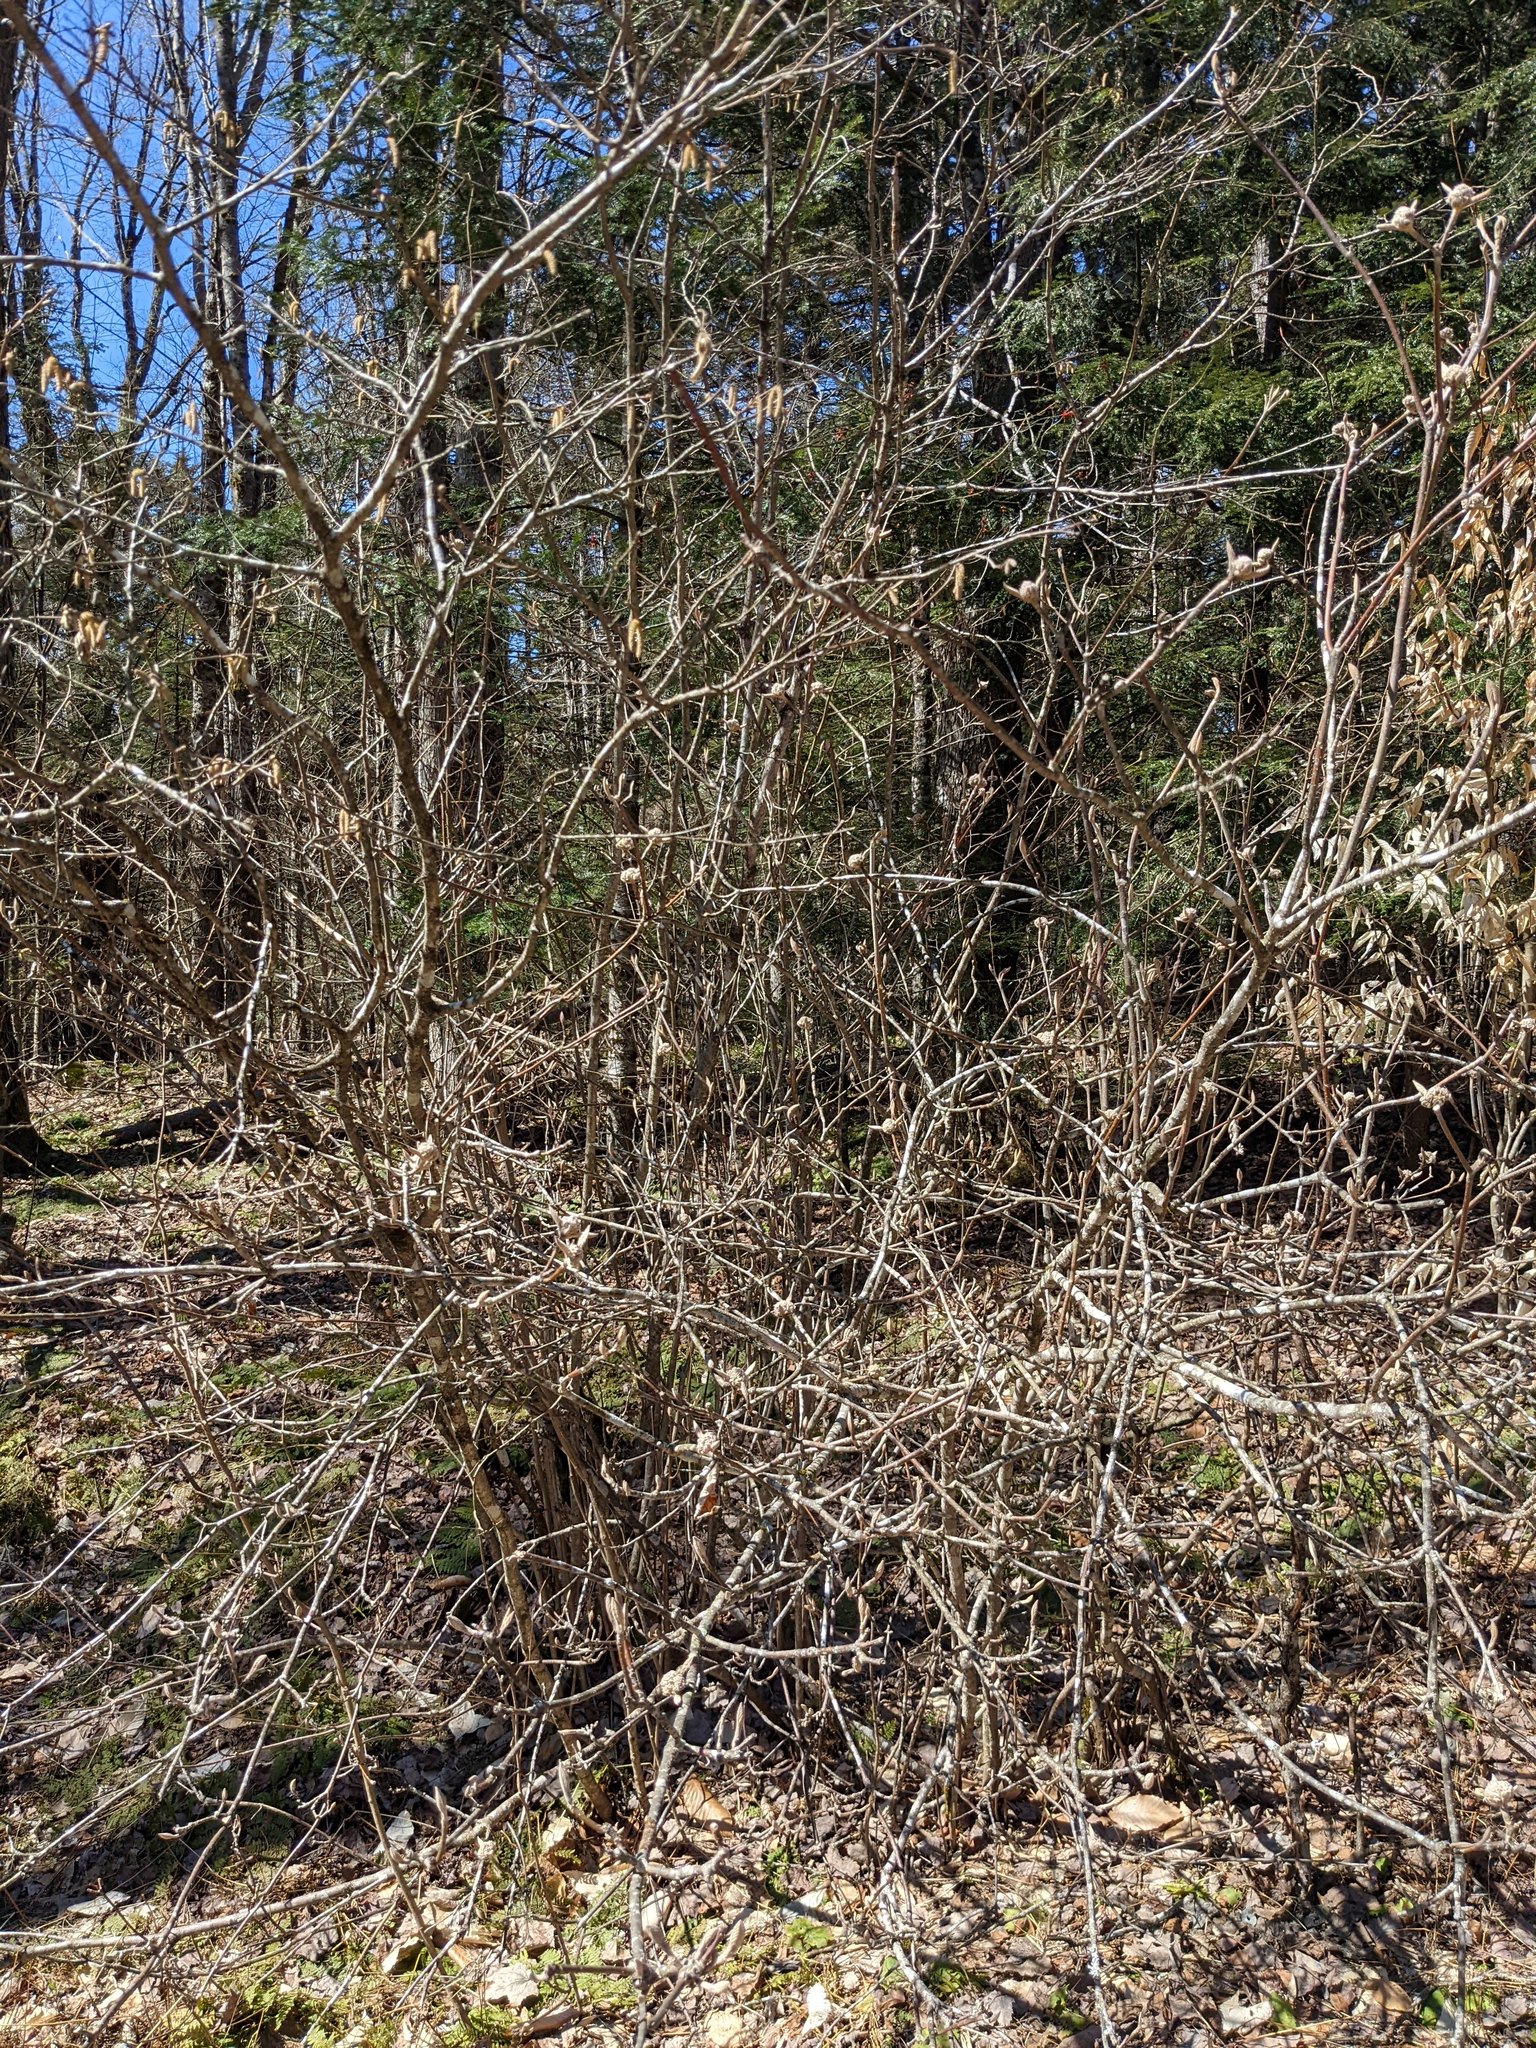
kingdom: Plantae
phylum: Tracheophyta
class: Magnoliopsida
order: Dipsacales
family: Viburnaceae
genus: Viburnum
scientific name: Viburnum lantanoides
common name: Hobblebush
